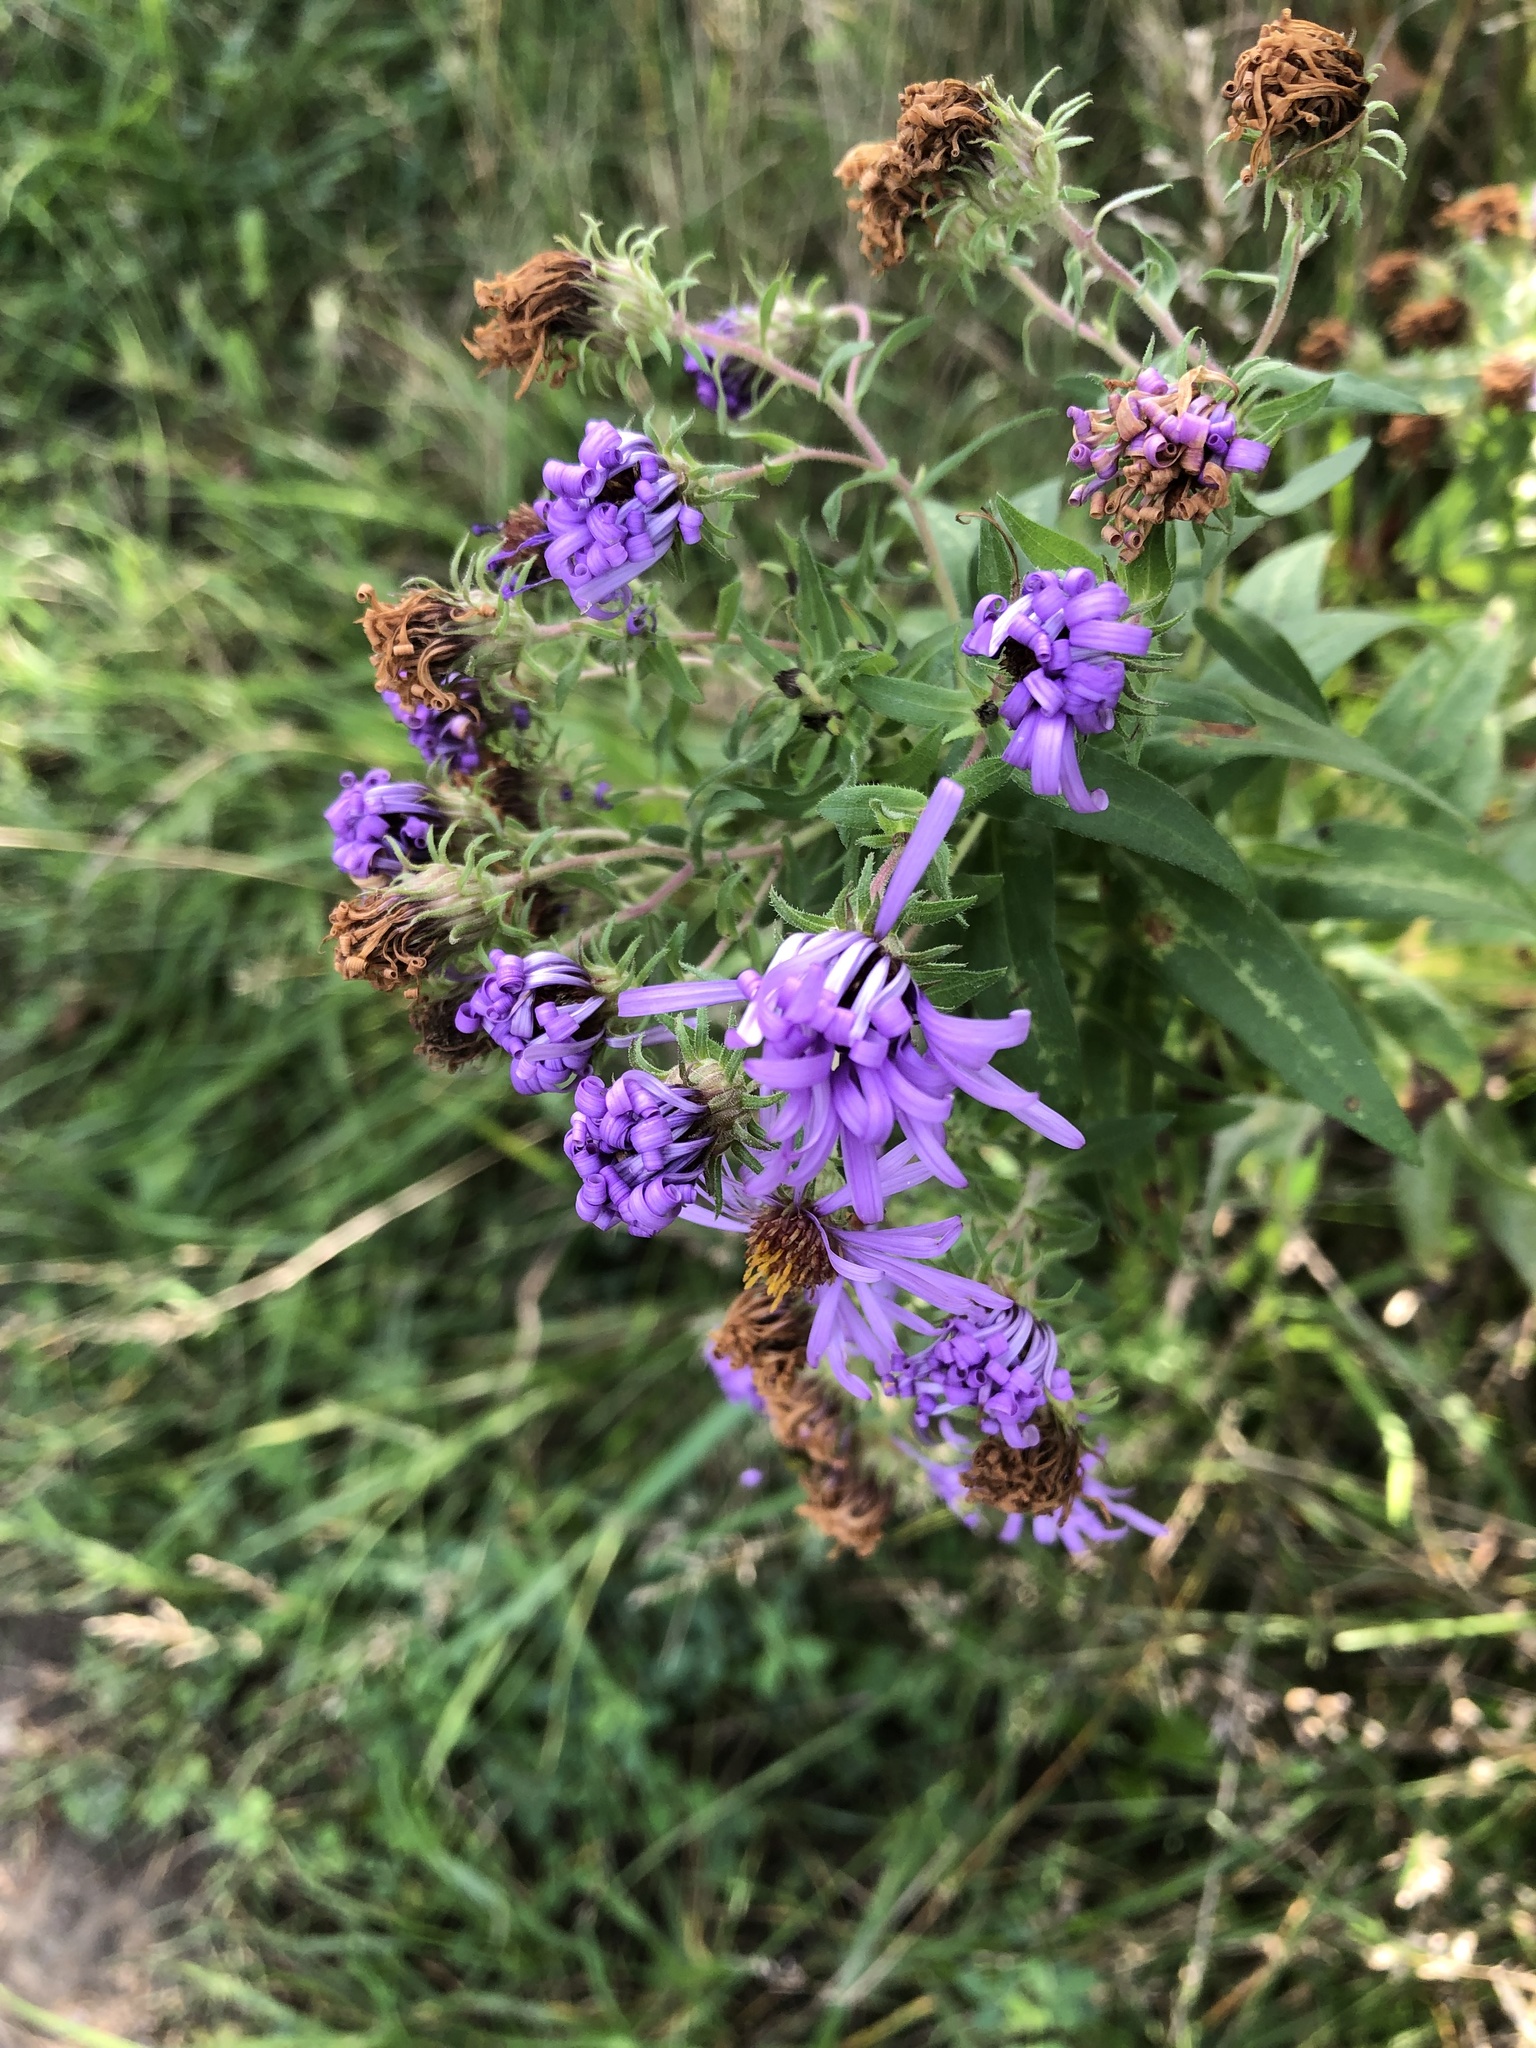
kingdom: Plantae
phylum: Tracheophyta
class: Magnoliopsida
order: Asterales
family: Asteraceae
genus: Symphyotrichum
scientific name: Symphyotrichum novae-angliae
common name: Michaelmas daisy
